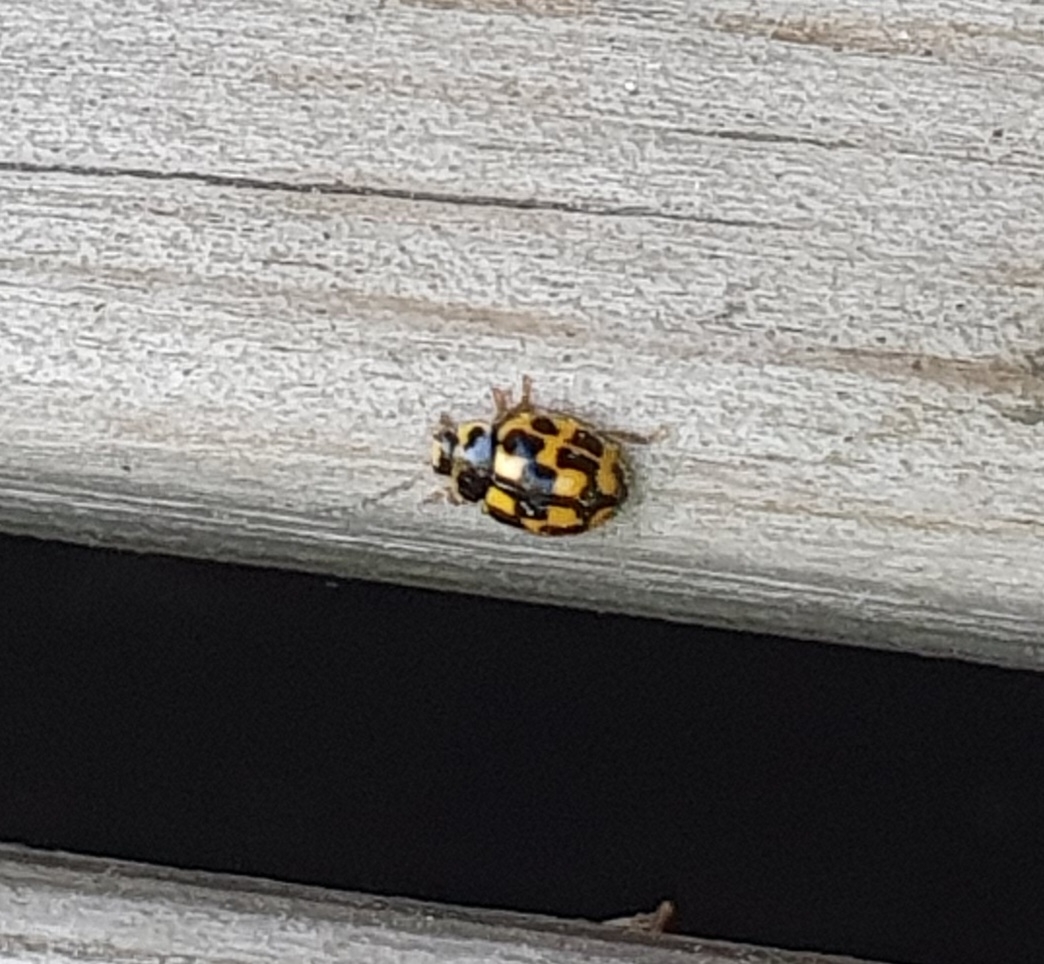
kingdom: Animalia
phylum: Arthropoda
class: Insecta
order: Coleoptera
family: Coccinellidae
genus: Propylaea
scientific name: Propylaea quatuordecimpunctata
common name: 14-spotted ladybird beetle
